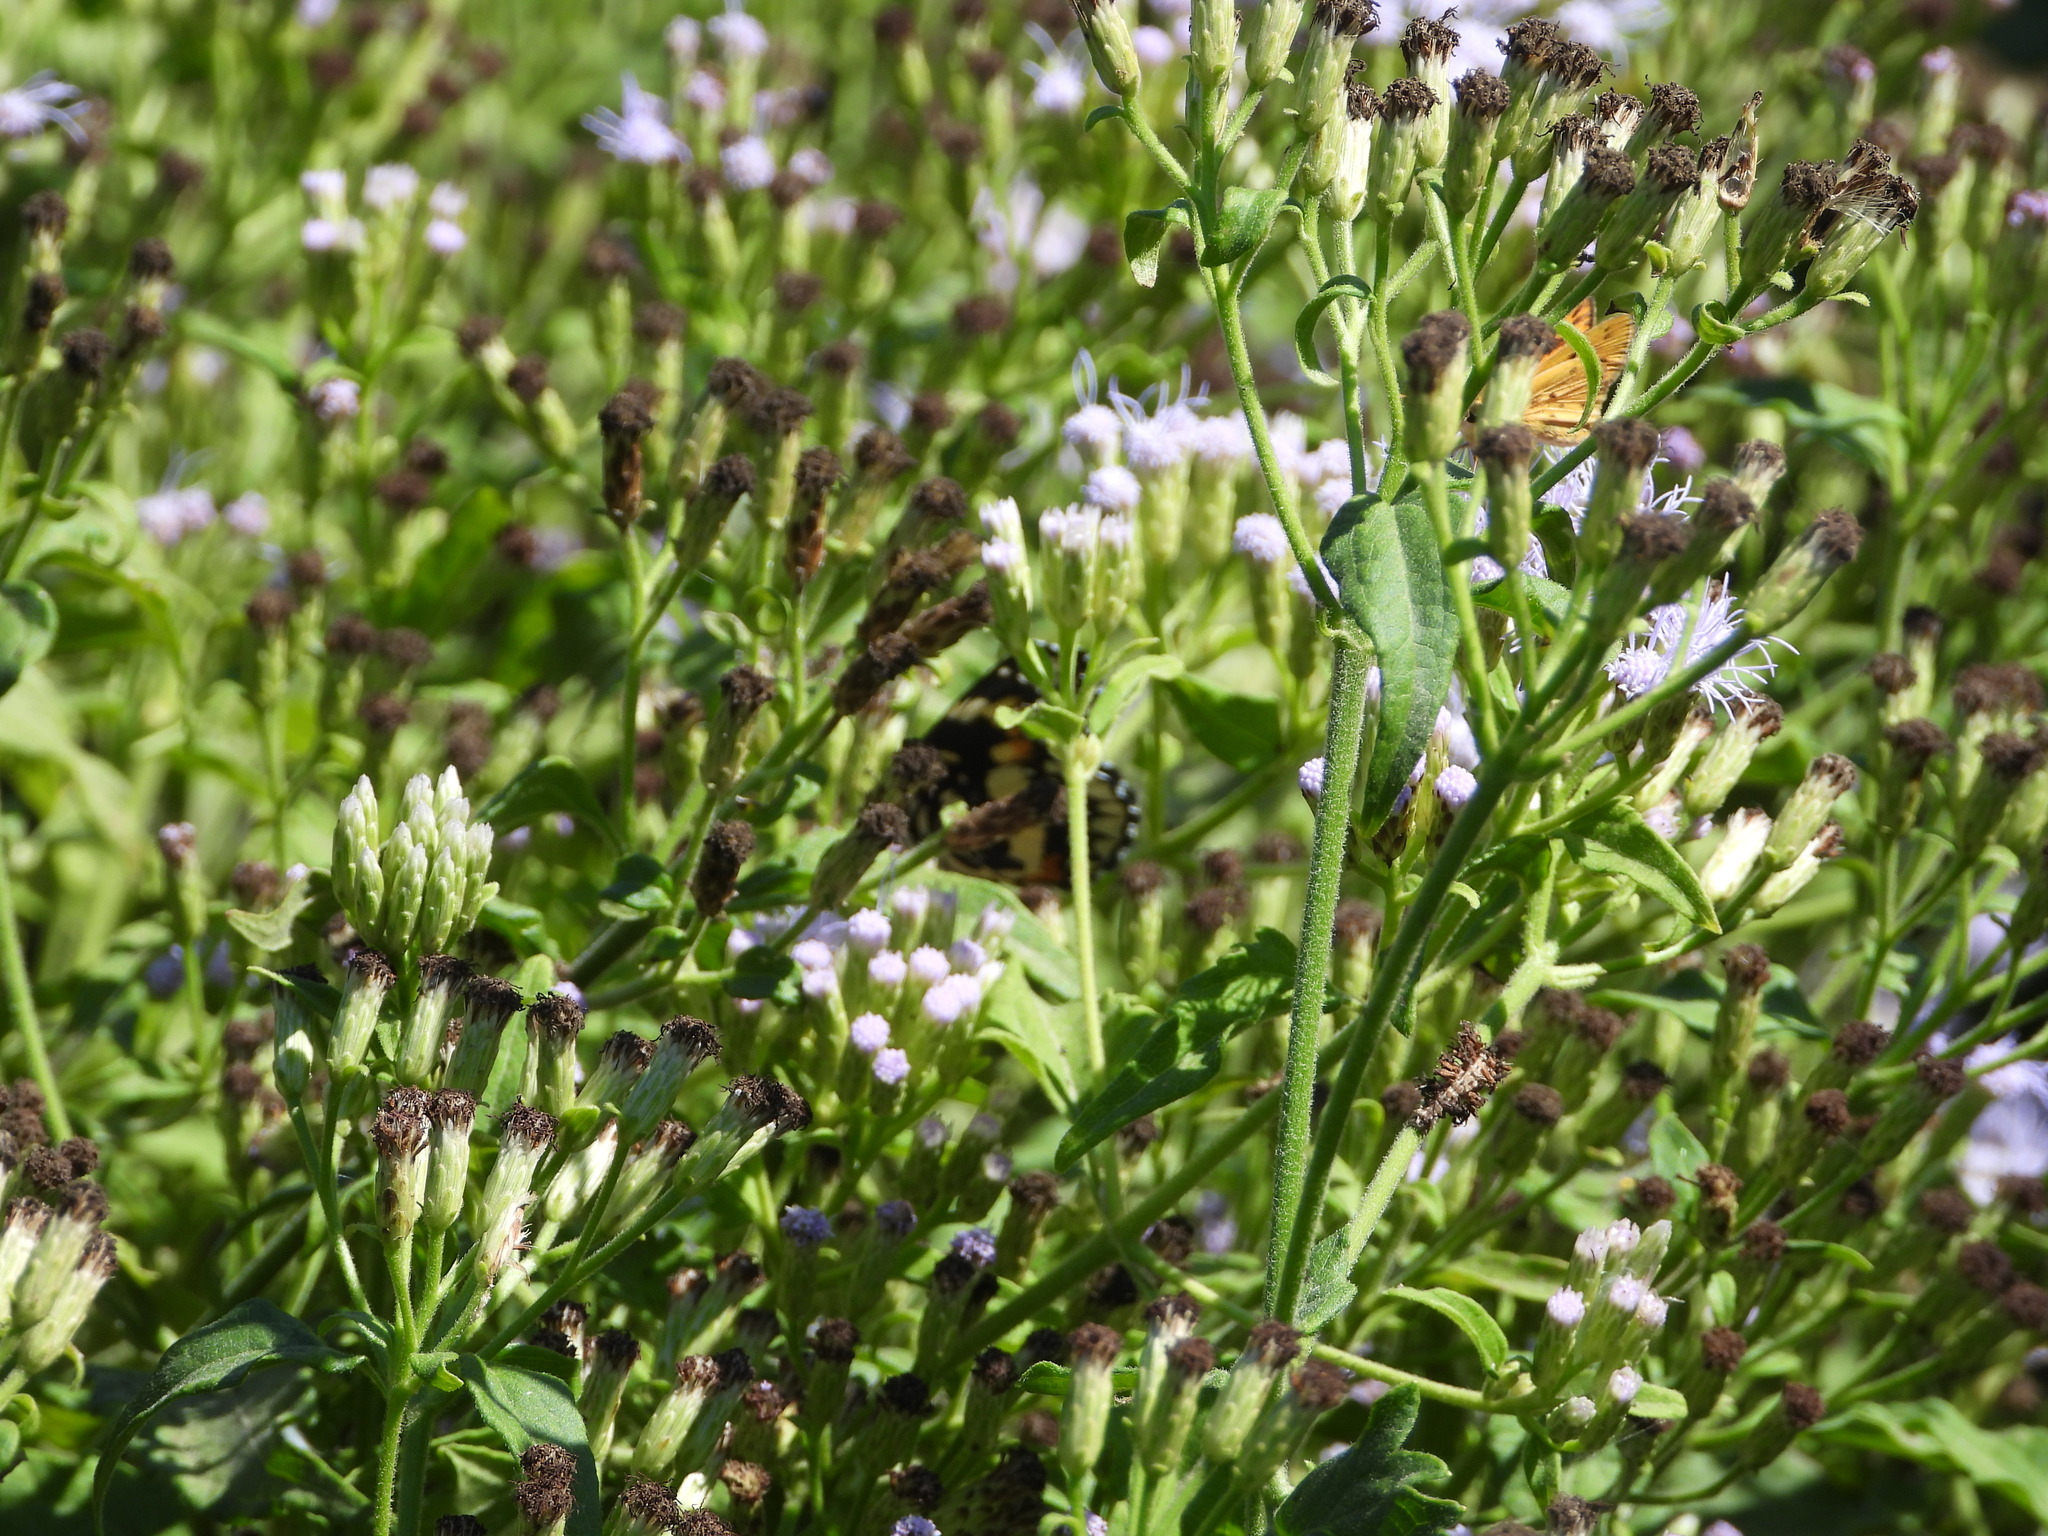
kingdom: Animalia
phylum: Arthropoda
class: Insecta
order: Lepidoptera
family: Nymphalidae
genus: Chlosyne
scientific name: Chlosyne lacinia
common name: Bordered patch
